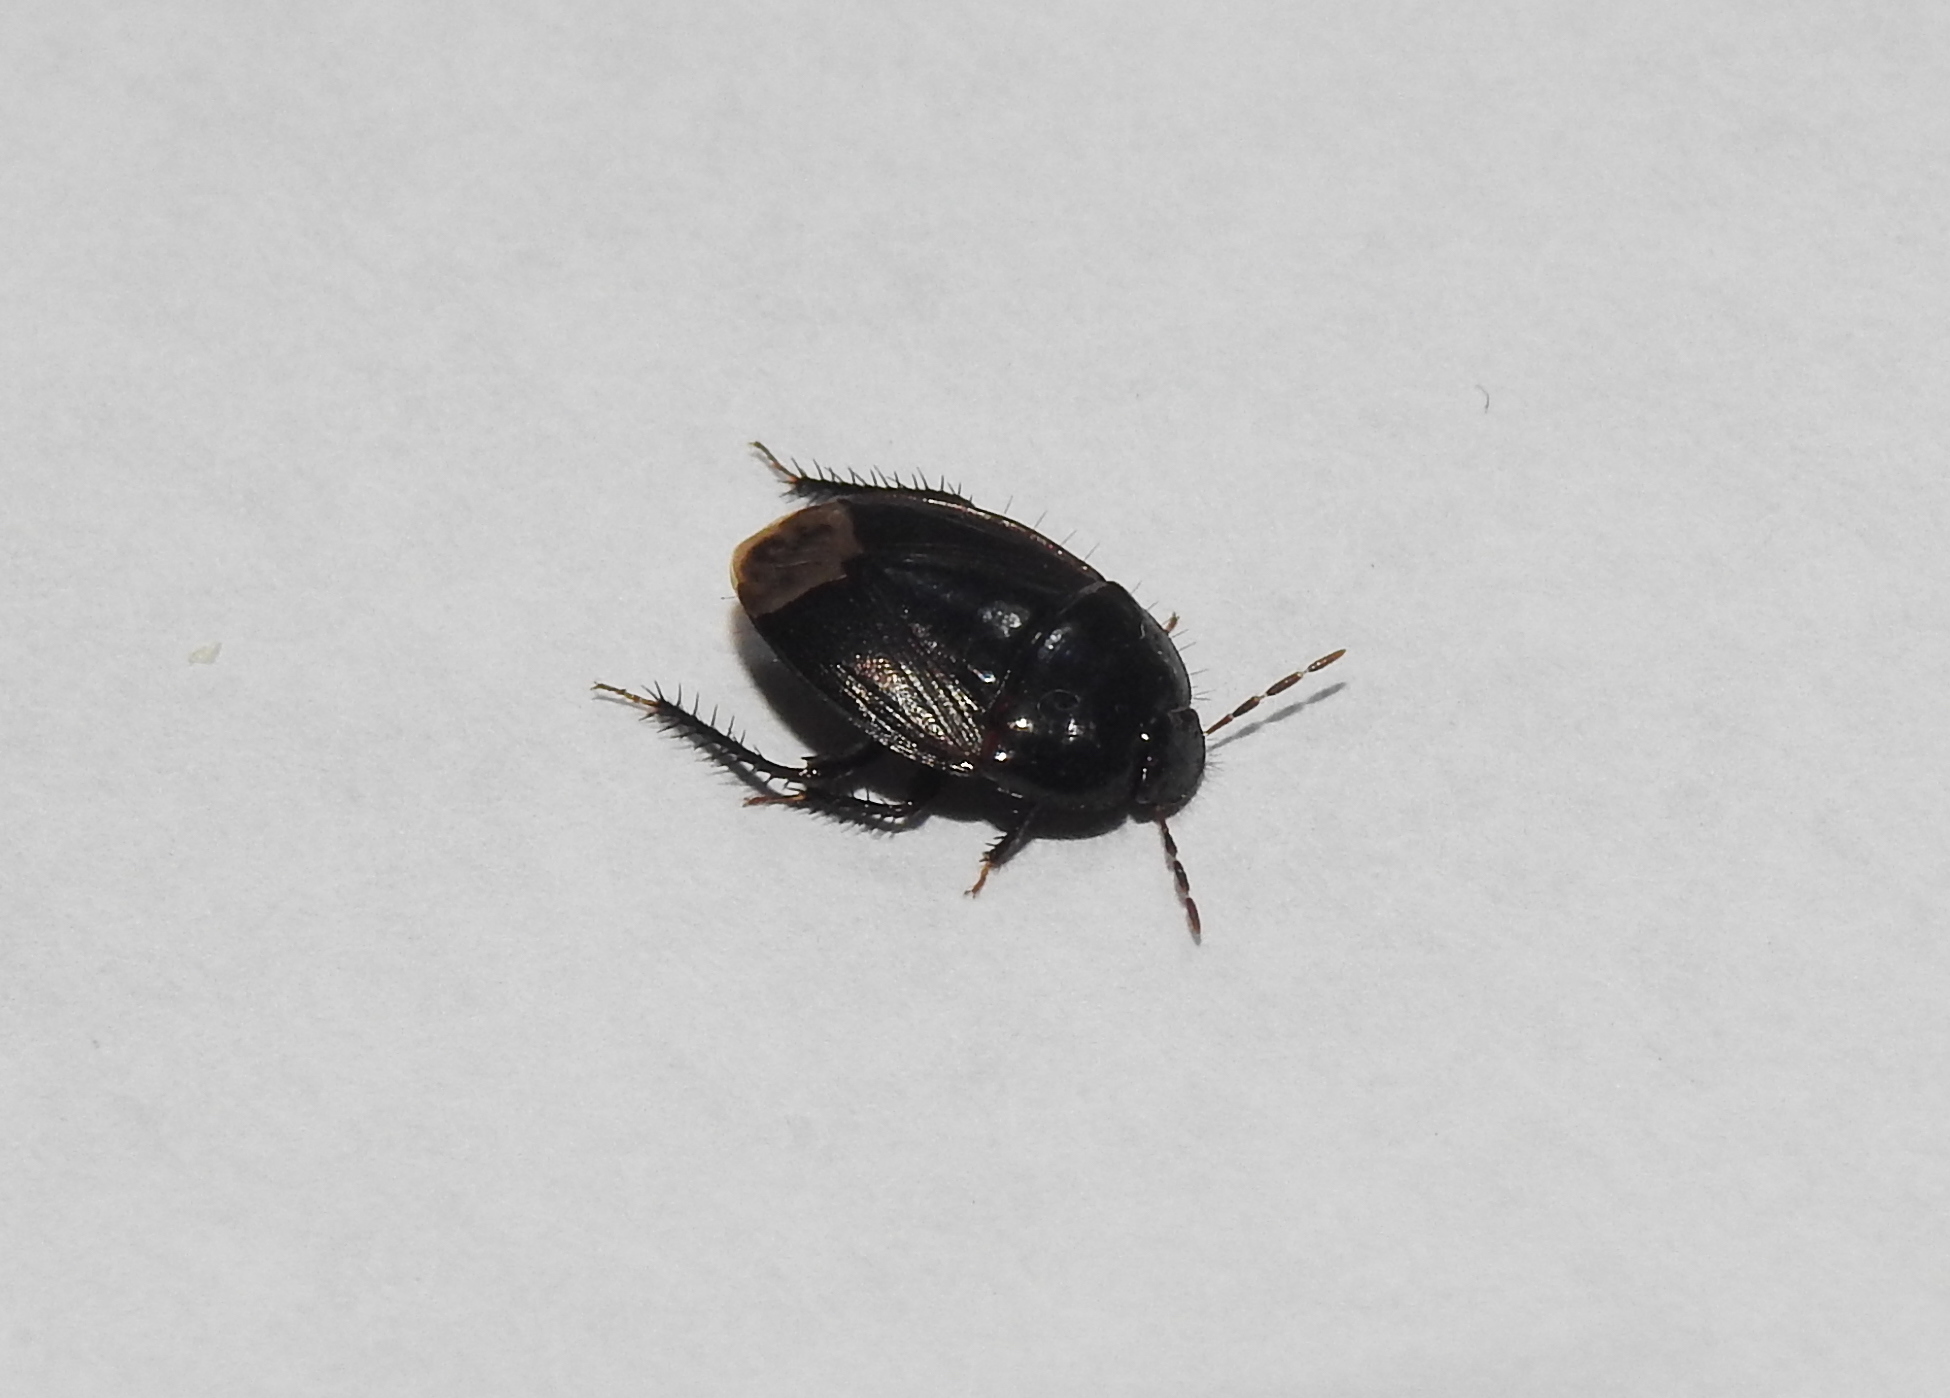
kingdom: Animalia
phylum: Arthropoda
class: Insecta
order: Hemiptera
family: Cydnidae
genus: Macroscytus
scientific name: Macroscytus brunneus
